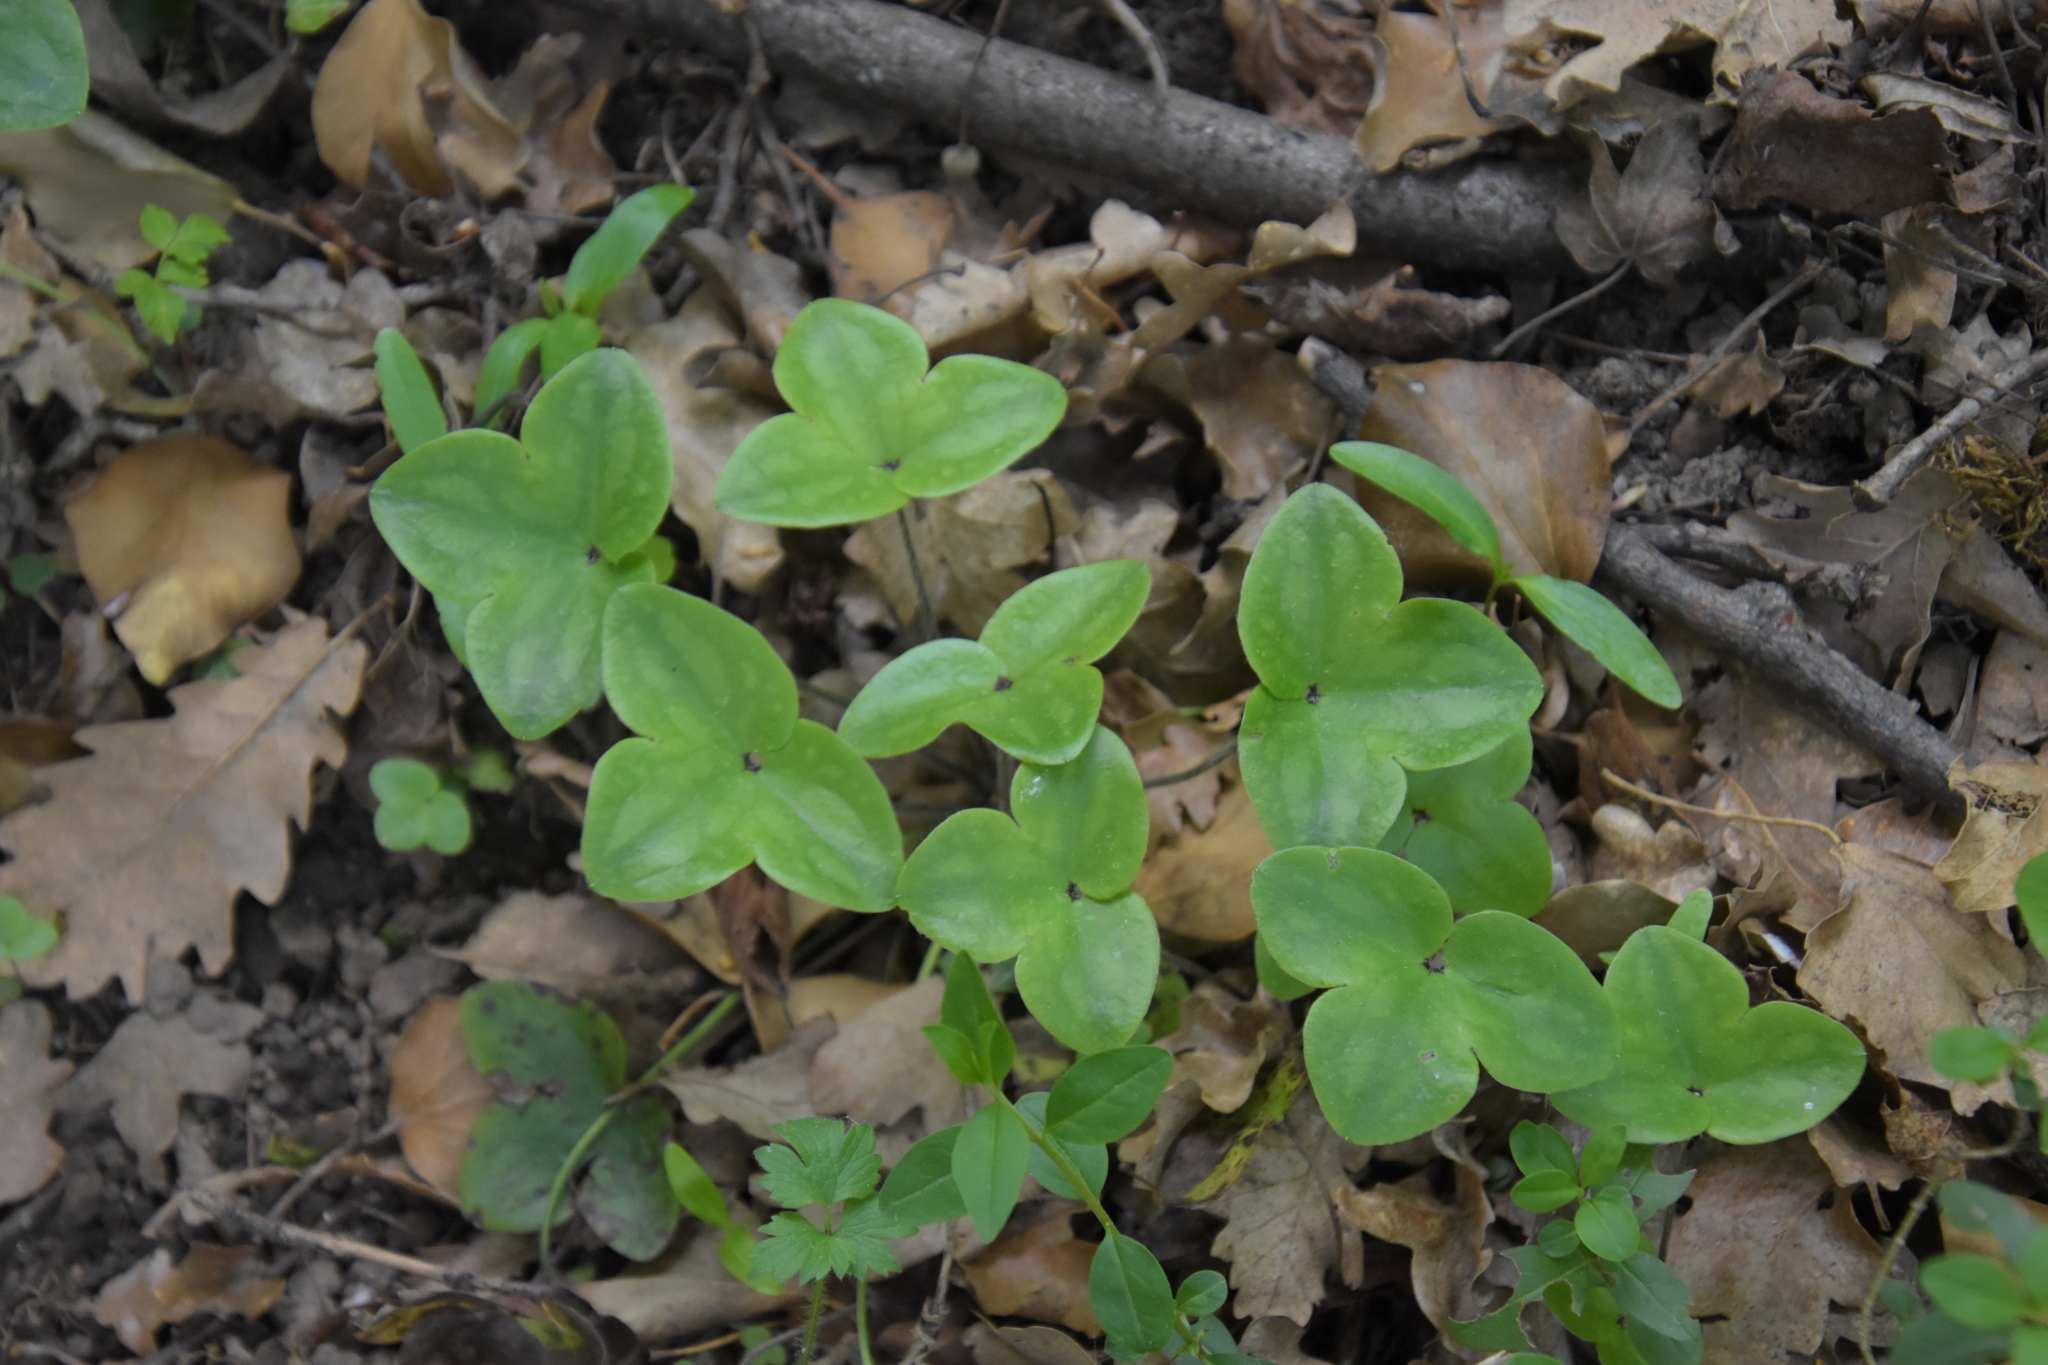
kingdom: Plantae
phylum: Tracheophyta
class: Magnoliopsida
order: Ranunculales
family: Ranunculaceae
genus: Hepatica
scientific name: Hepatica nobilis
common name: Liverleaf
